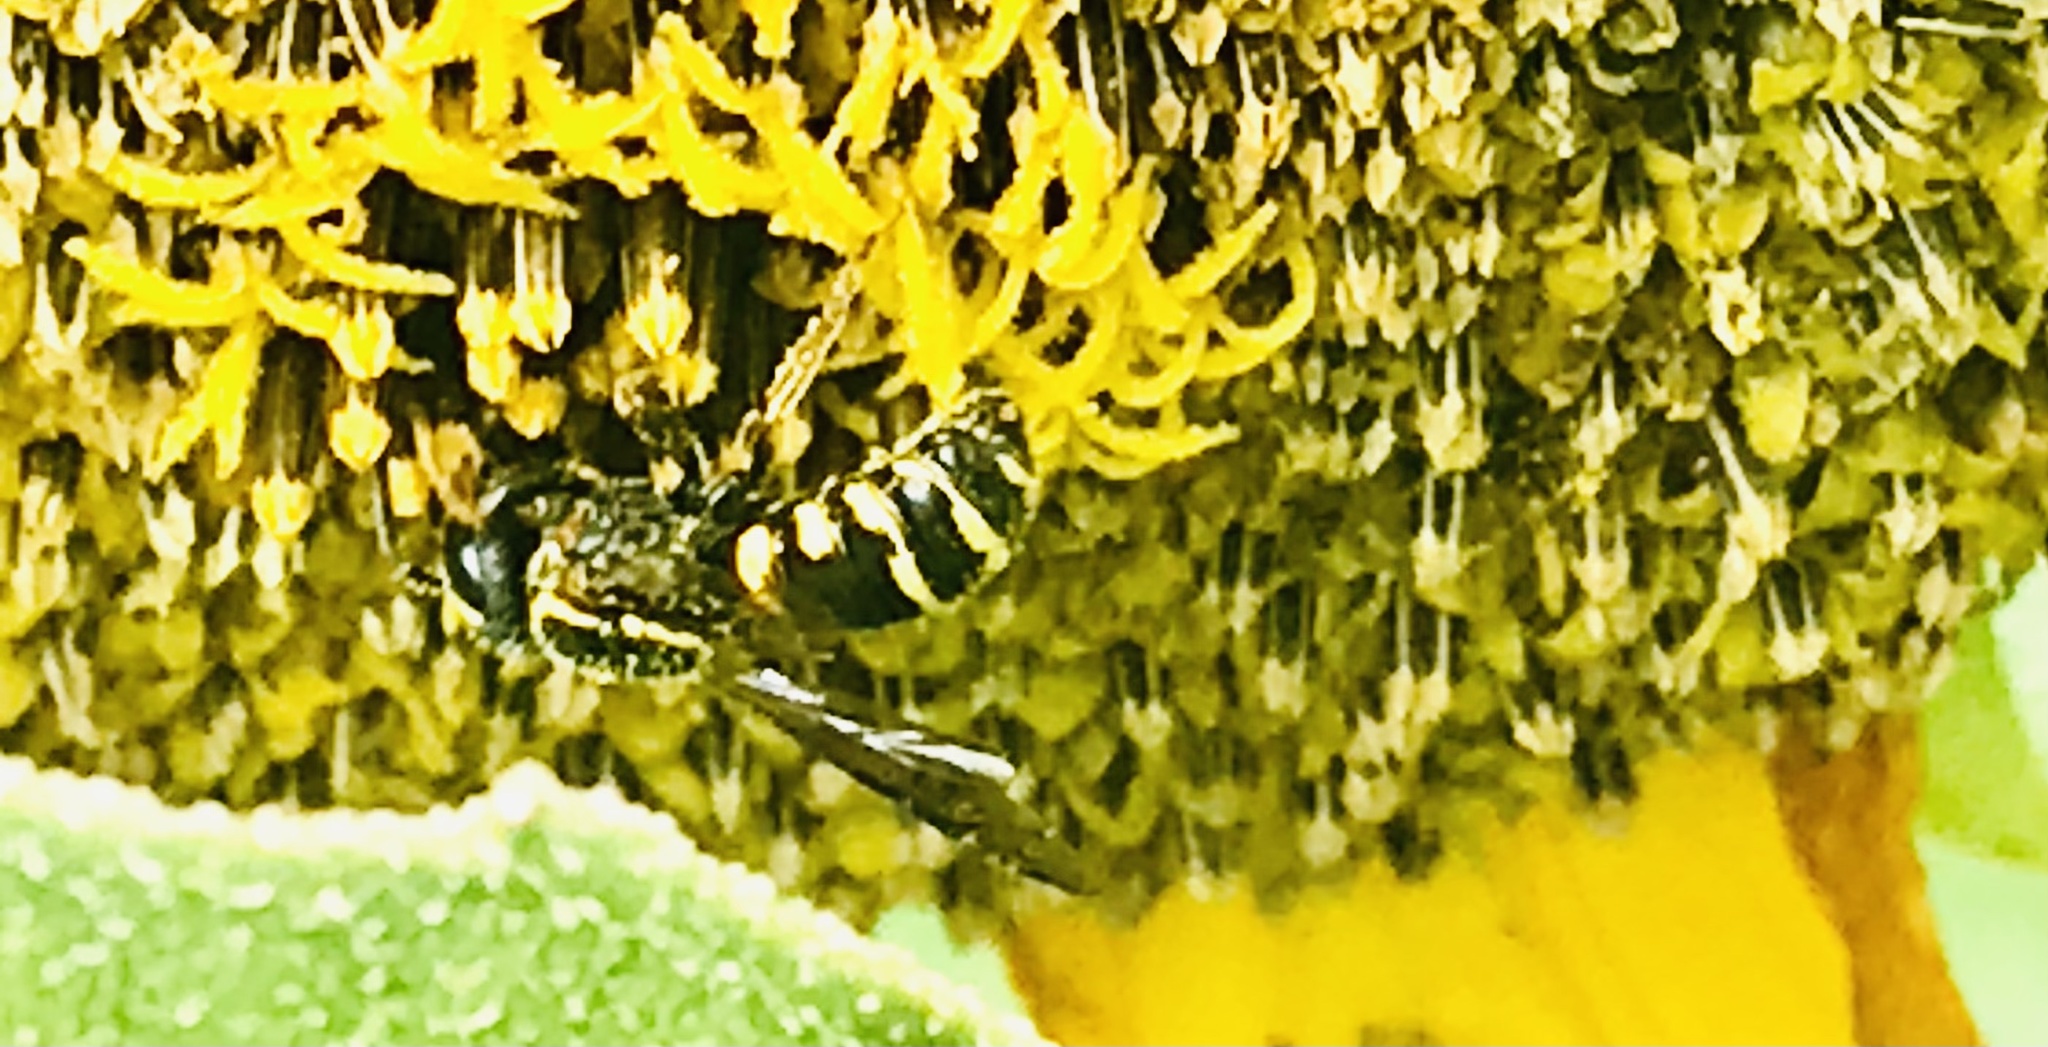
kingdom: Animalia
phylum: Arthropoda
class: Insecta
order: Hymenoptera
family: Megachilidae
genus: Stelis
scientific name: Stelis louisae
